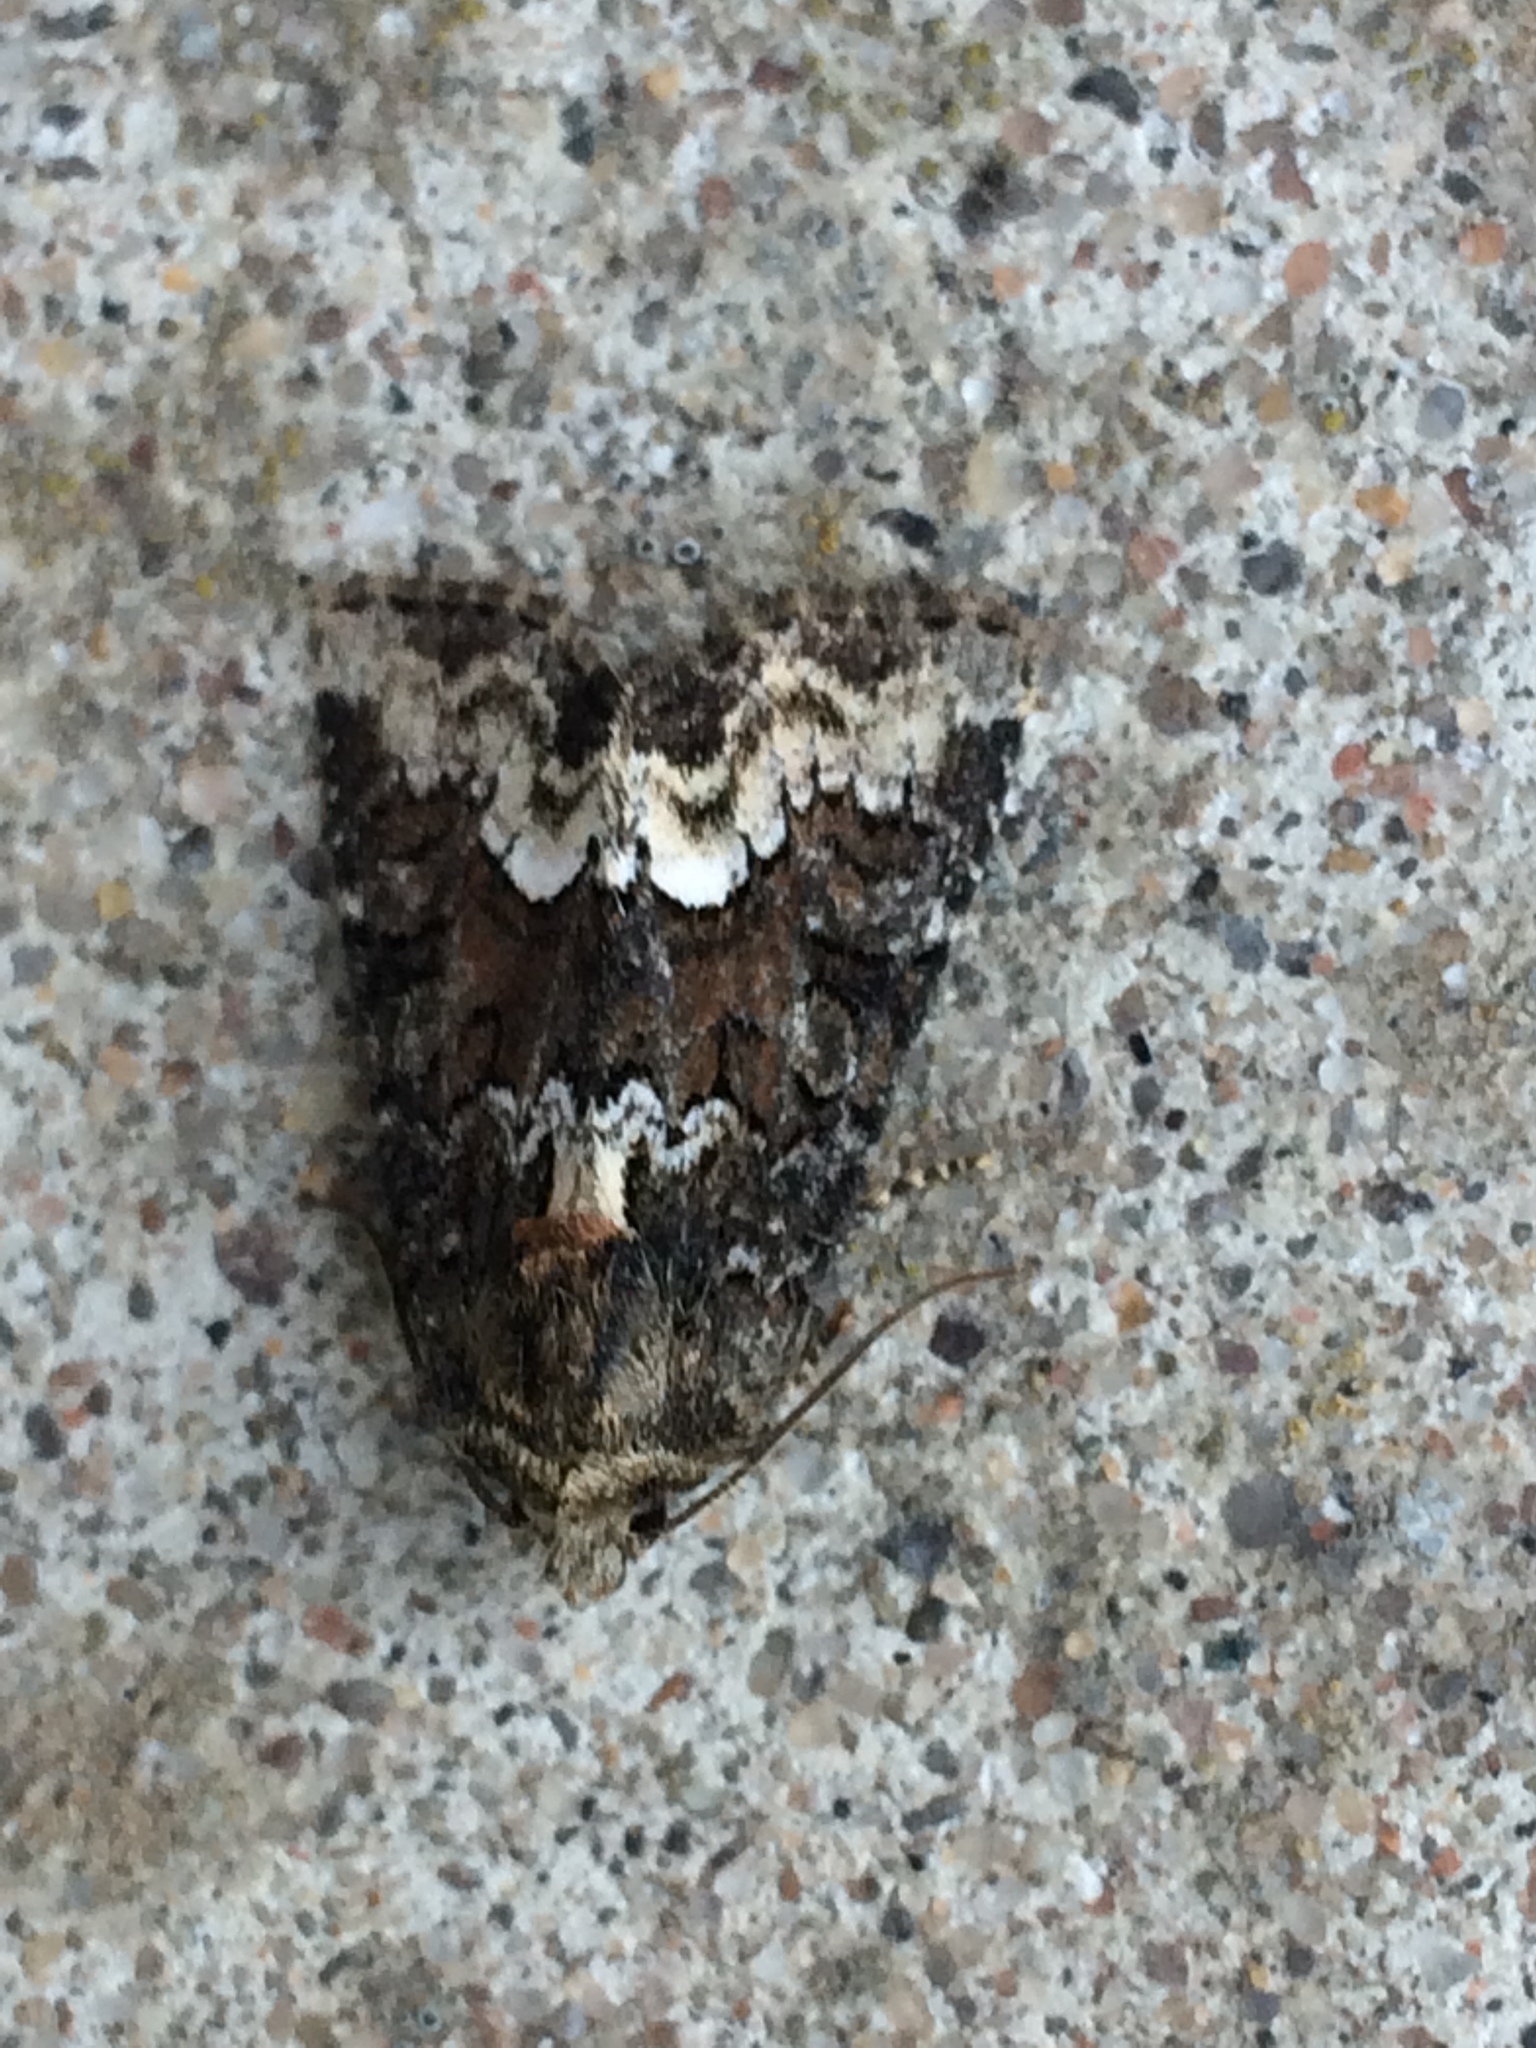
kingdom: Animalia
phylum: Arthropoda
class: Insecta
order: Lepidoptera
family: Noctuidae
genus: Oligia
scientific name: Oligia strigilis
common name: Marbled minor
